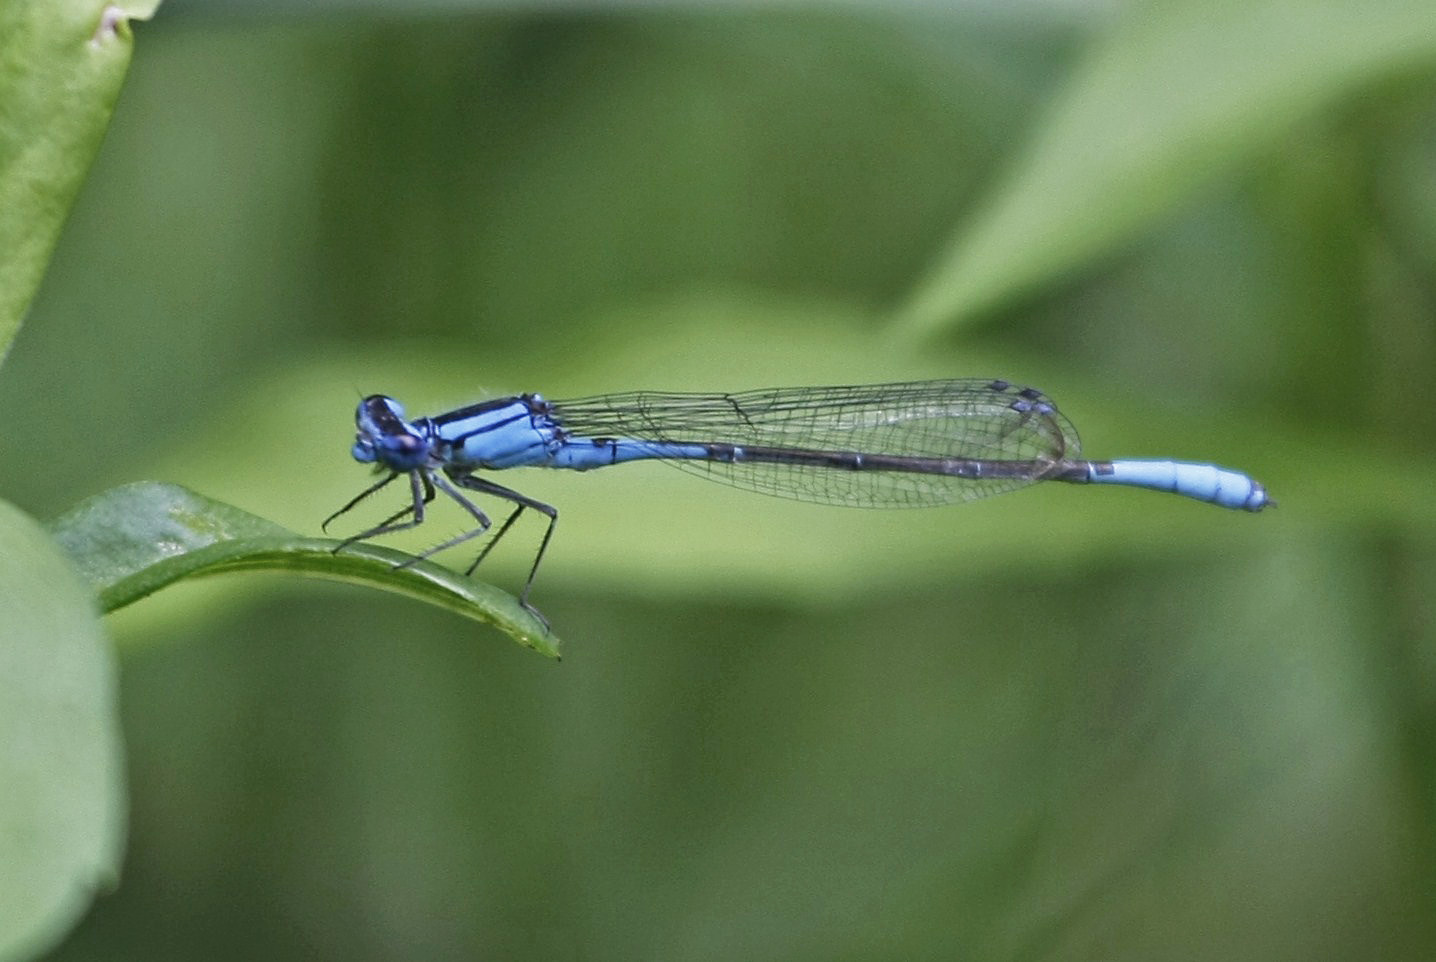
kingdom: Animalia
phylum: Arthropoda
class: Insecta
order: Odonata
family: Coenagrionidae
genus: Enallagma
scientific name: Enallagma aspersum
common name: Azure bluet
